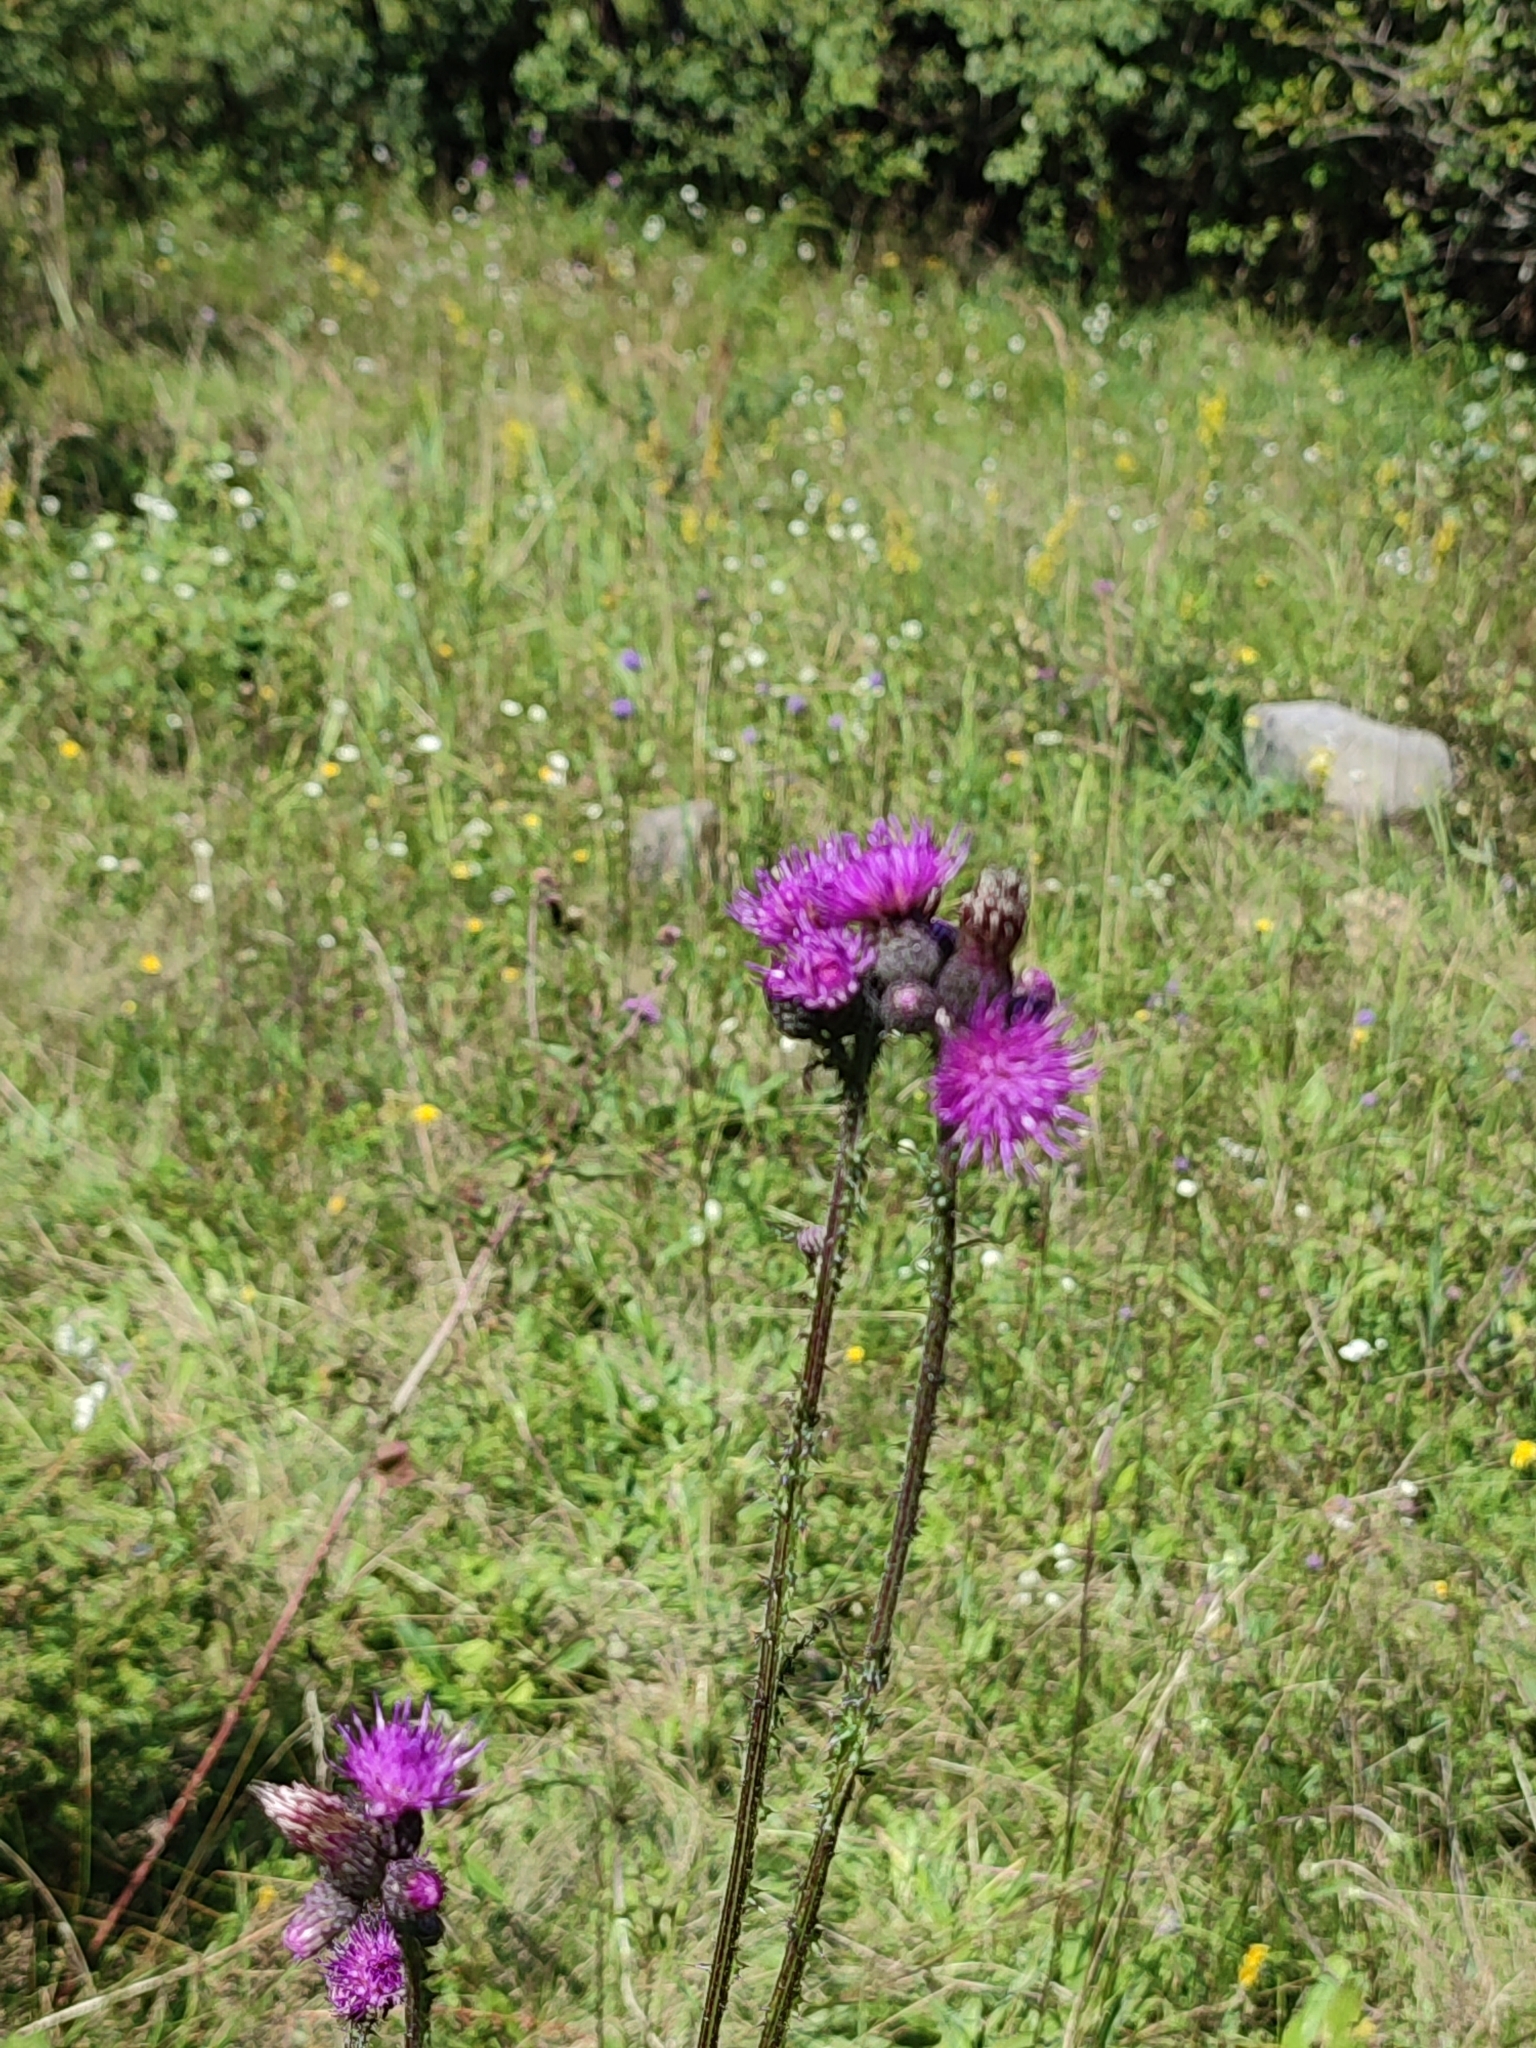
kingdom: Plantae
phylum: Tracheophyta
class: Magnoliopsida
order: Asterales
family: Asteraceae
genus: Cirsium
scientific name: Cirsium palustre
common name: Marsh thistle
